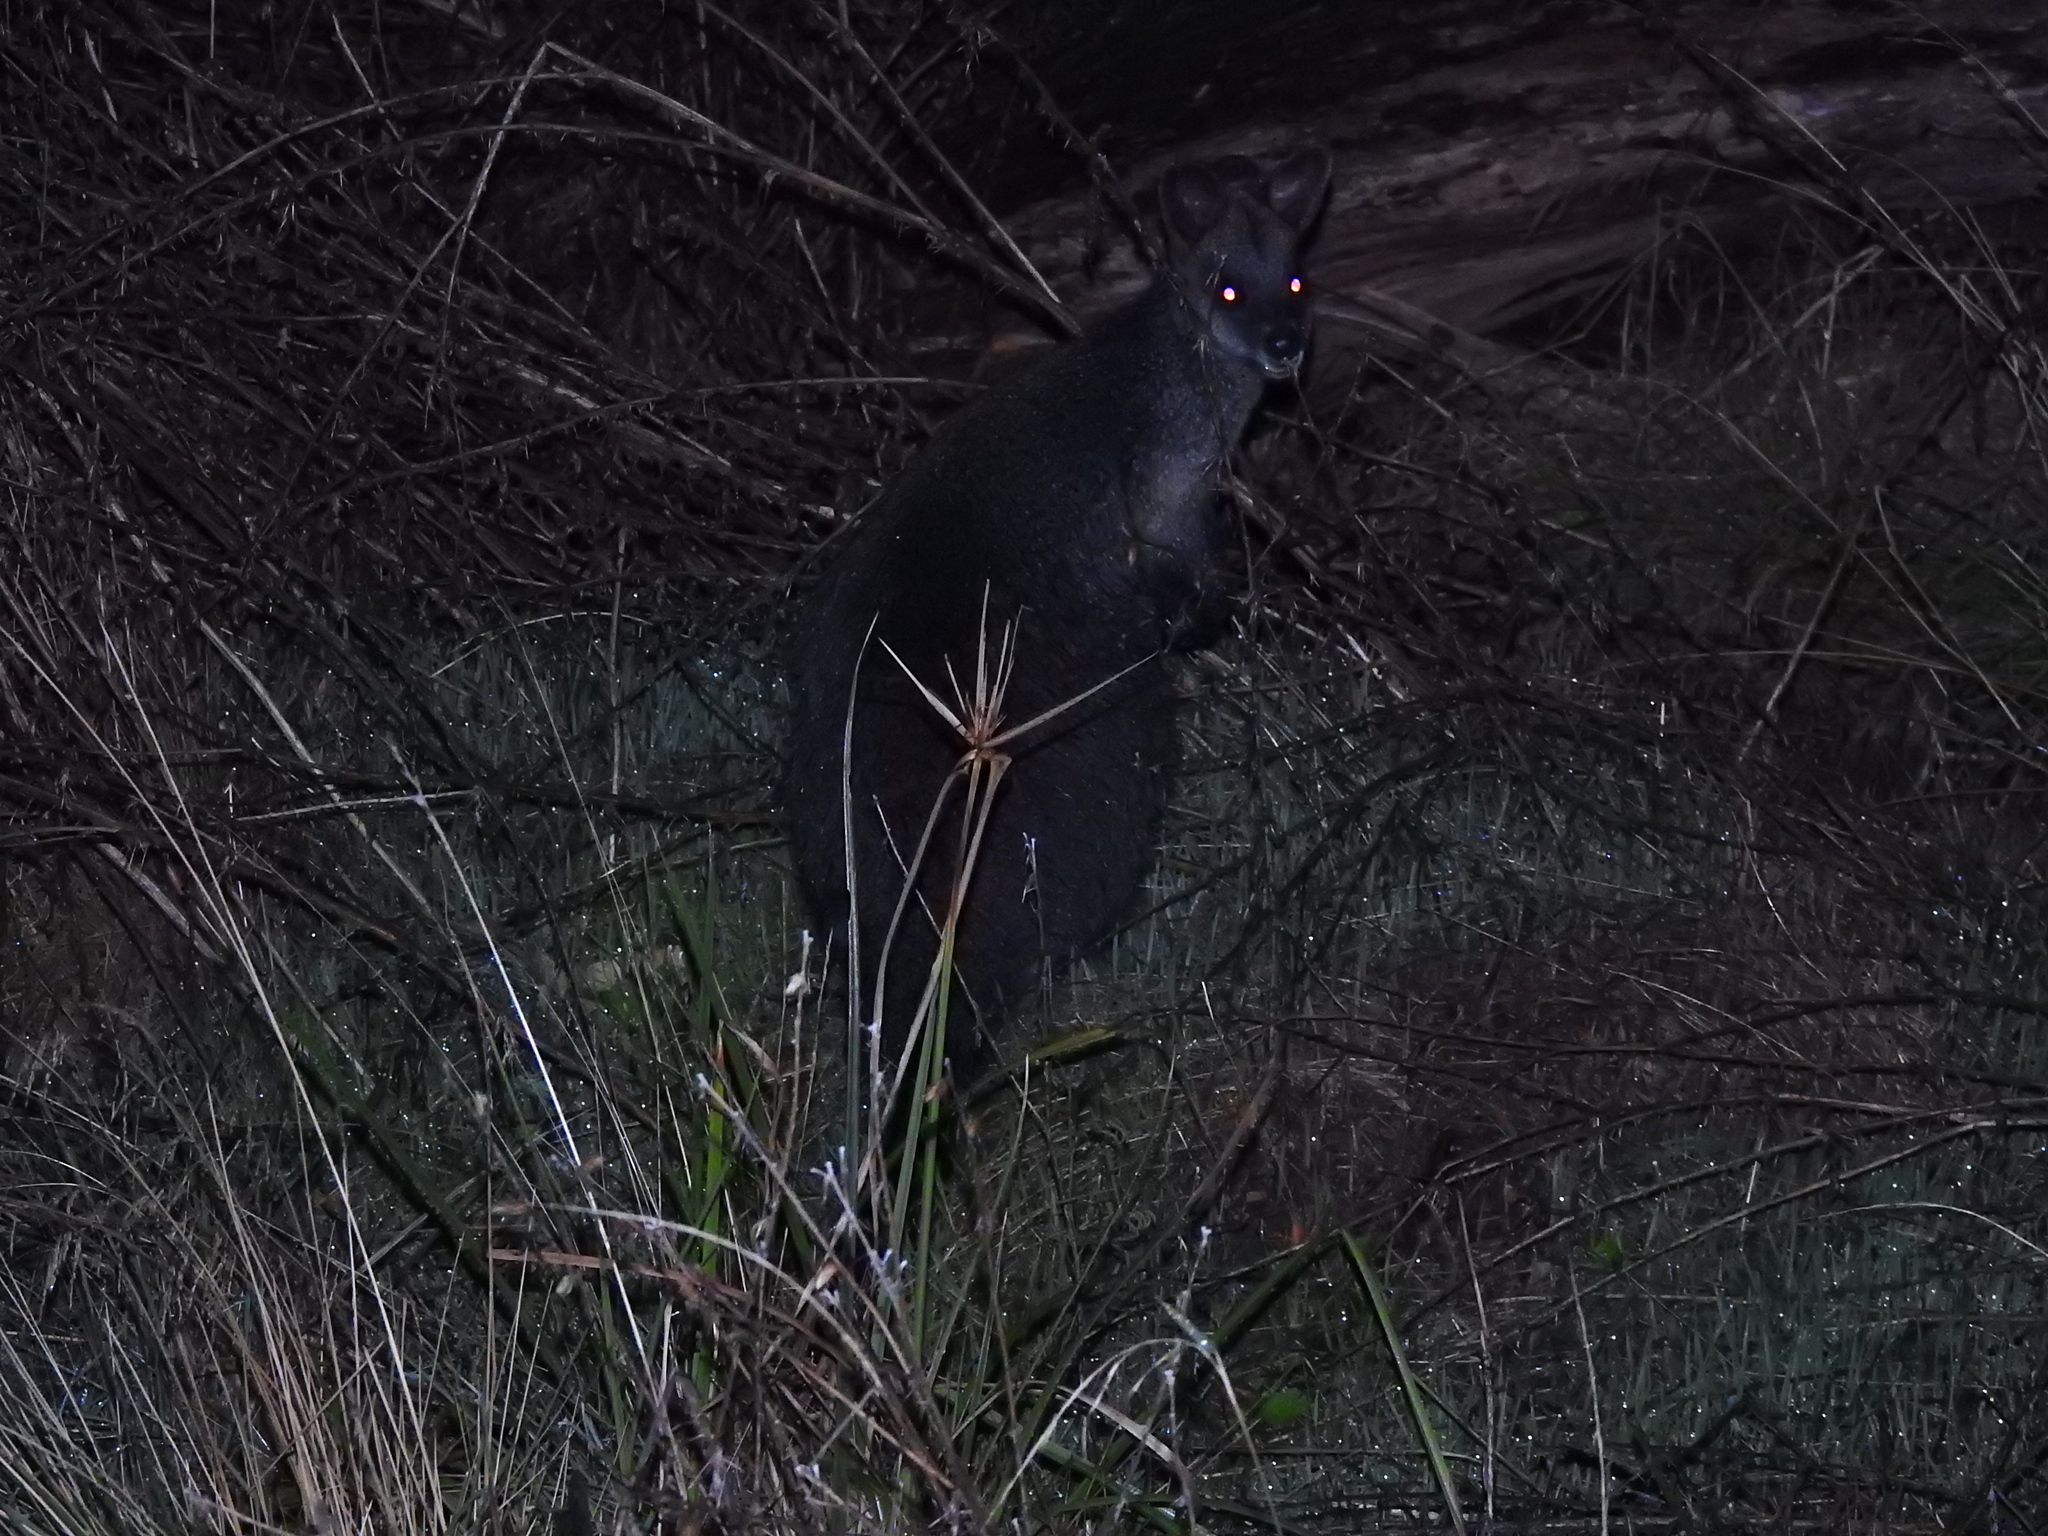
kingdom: Animalia
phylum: Chordata
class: Mammalia
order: Diprotodontia
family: Macropodidae
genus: Wallabia
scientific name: Wallabia bicolor
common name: Swamp wallaby
